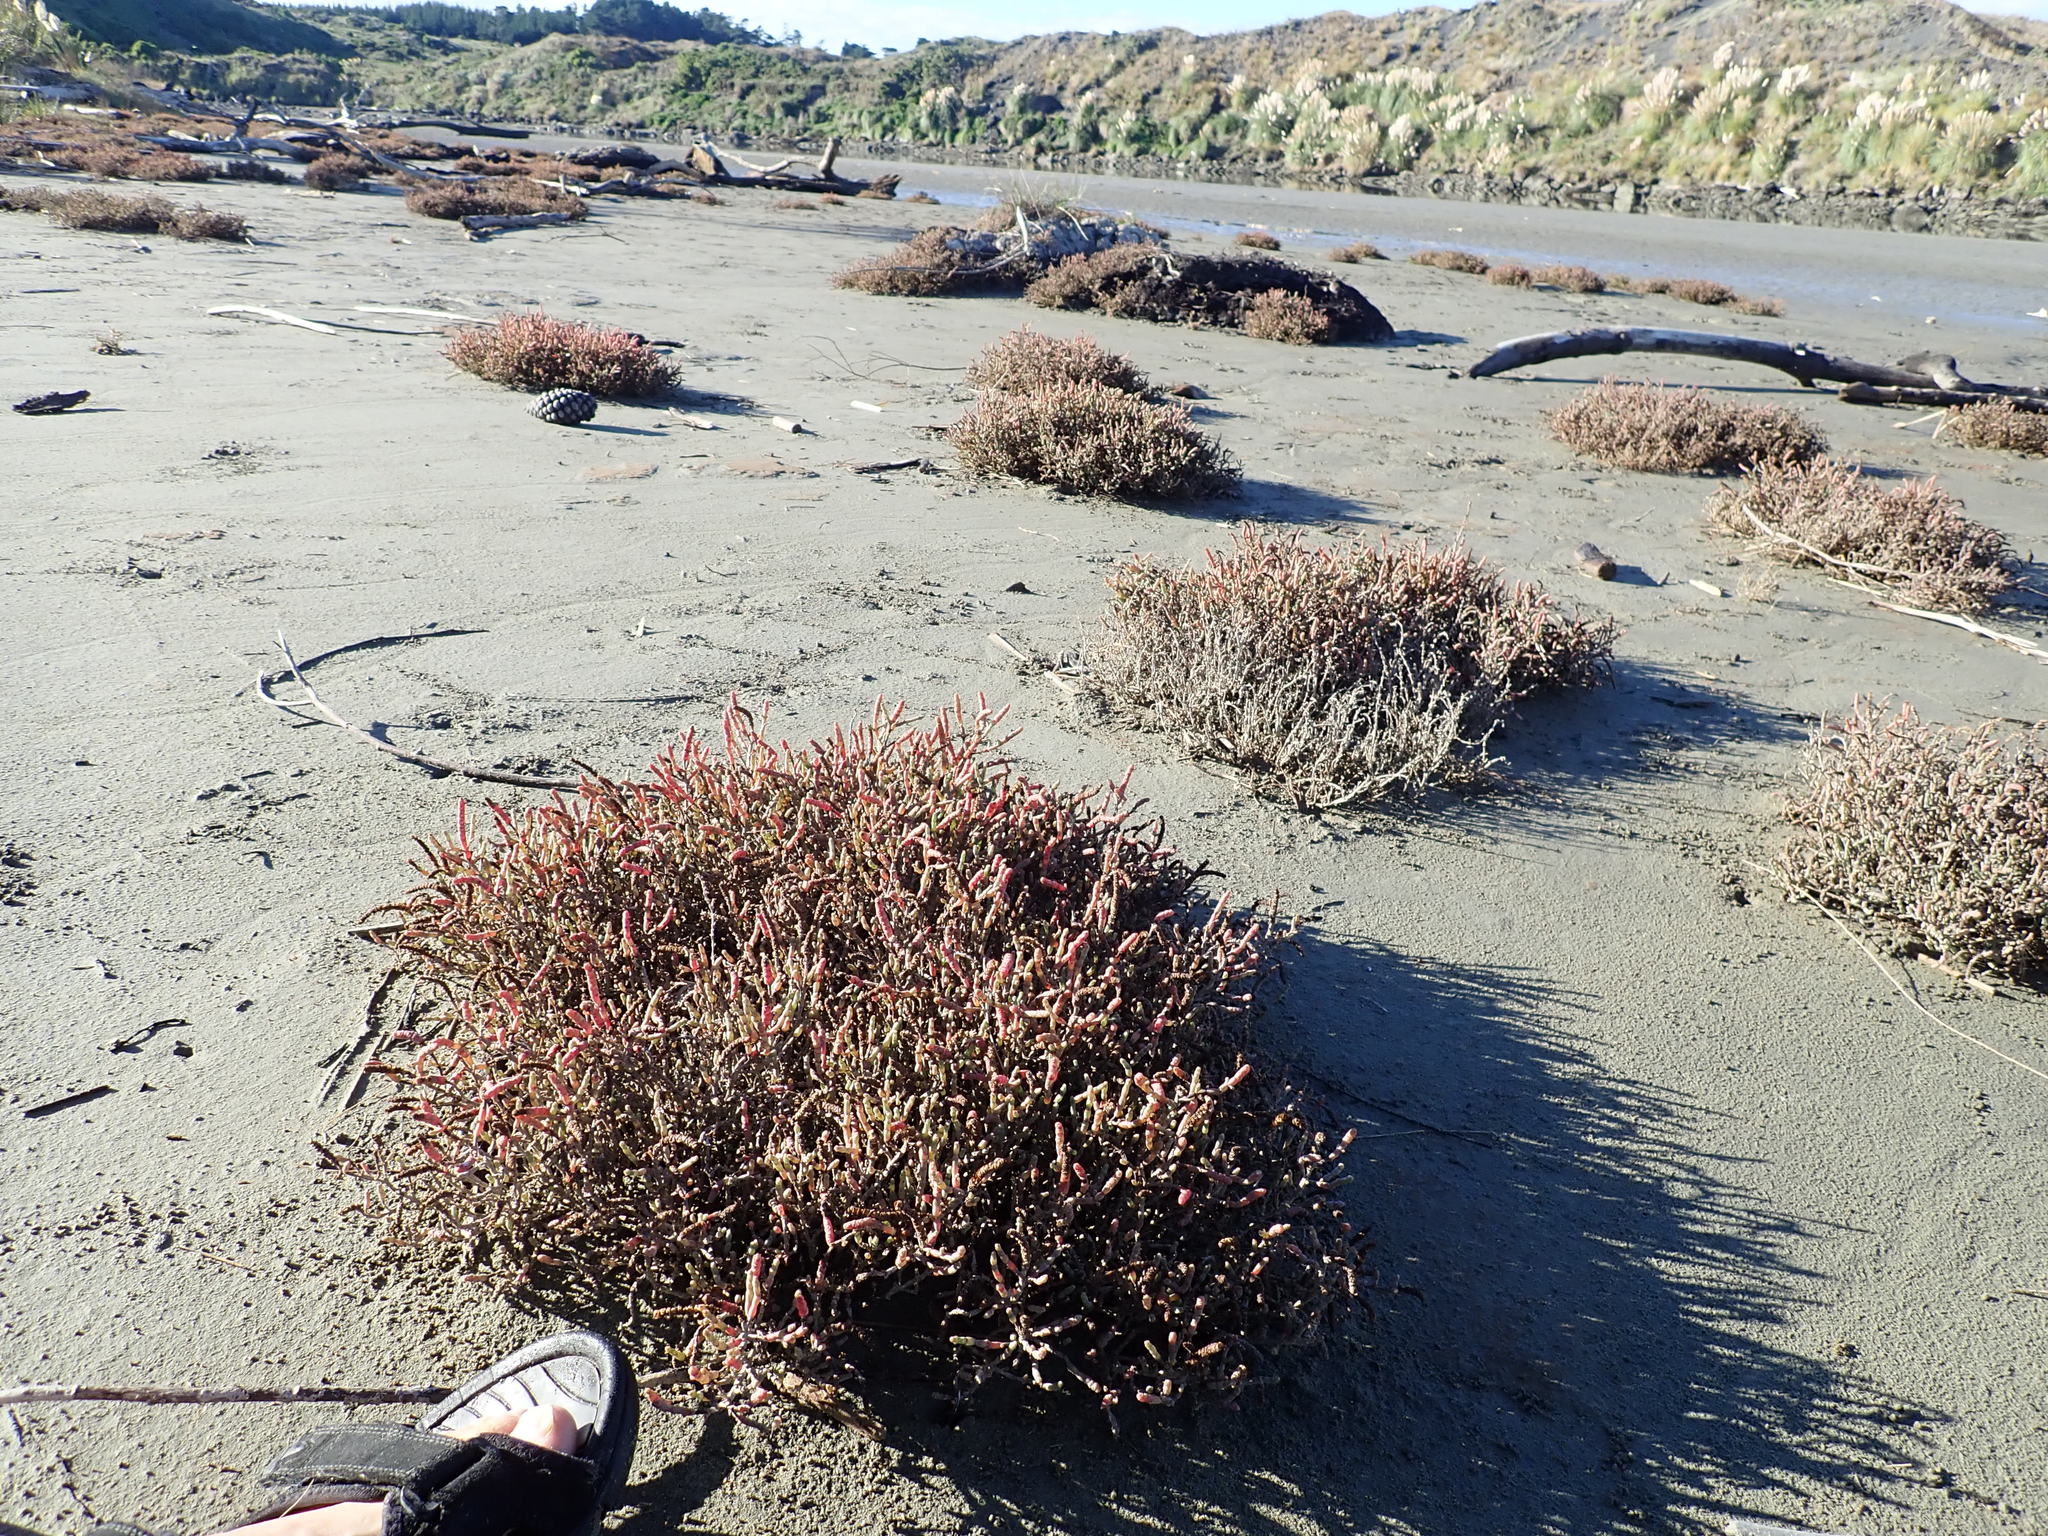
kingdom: Plantae
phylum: Tracheophyta
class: Magnoliopsida
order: Caryophyllales
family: Amaranthaceae
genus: Salicornia
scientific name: Salicornia quinqueflora
